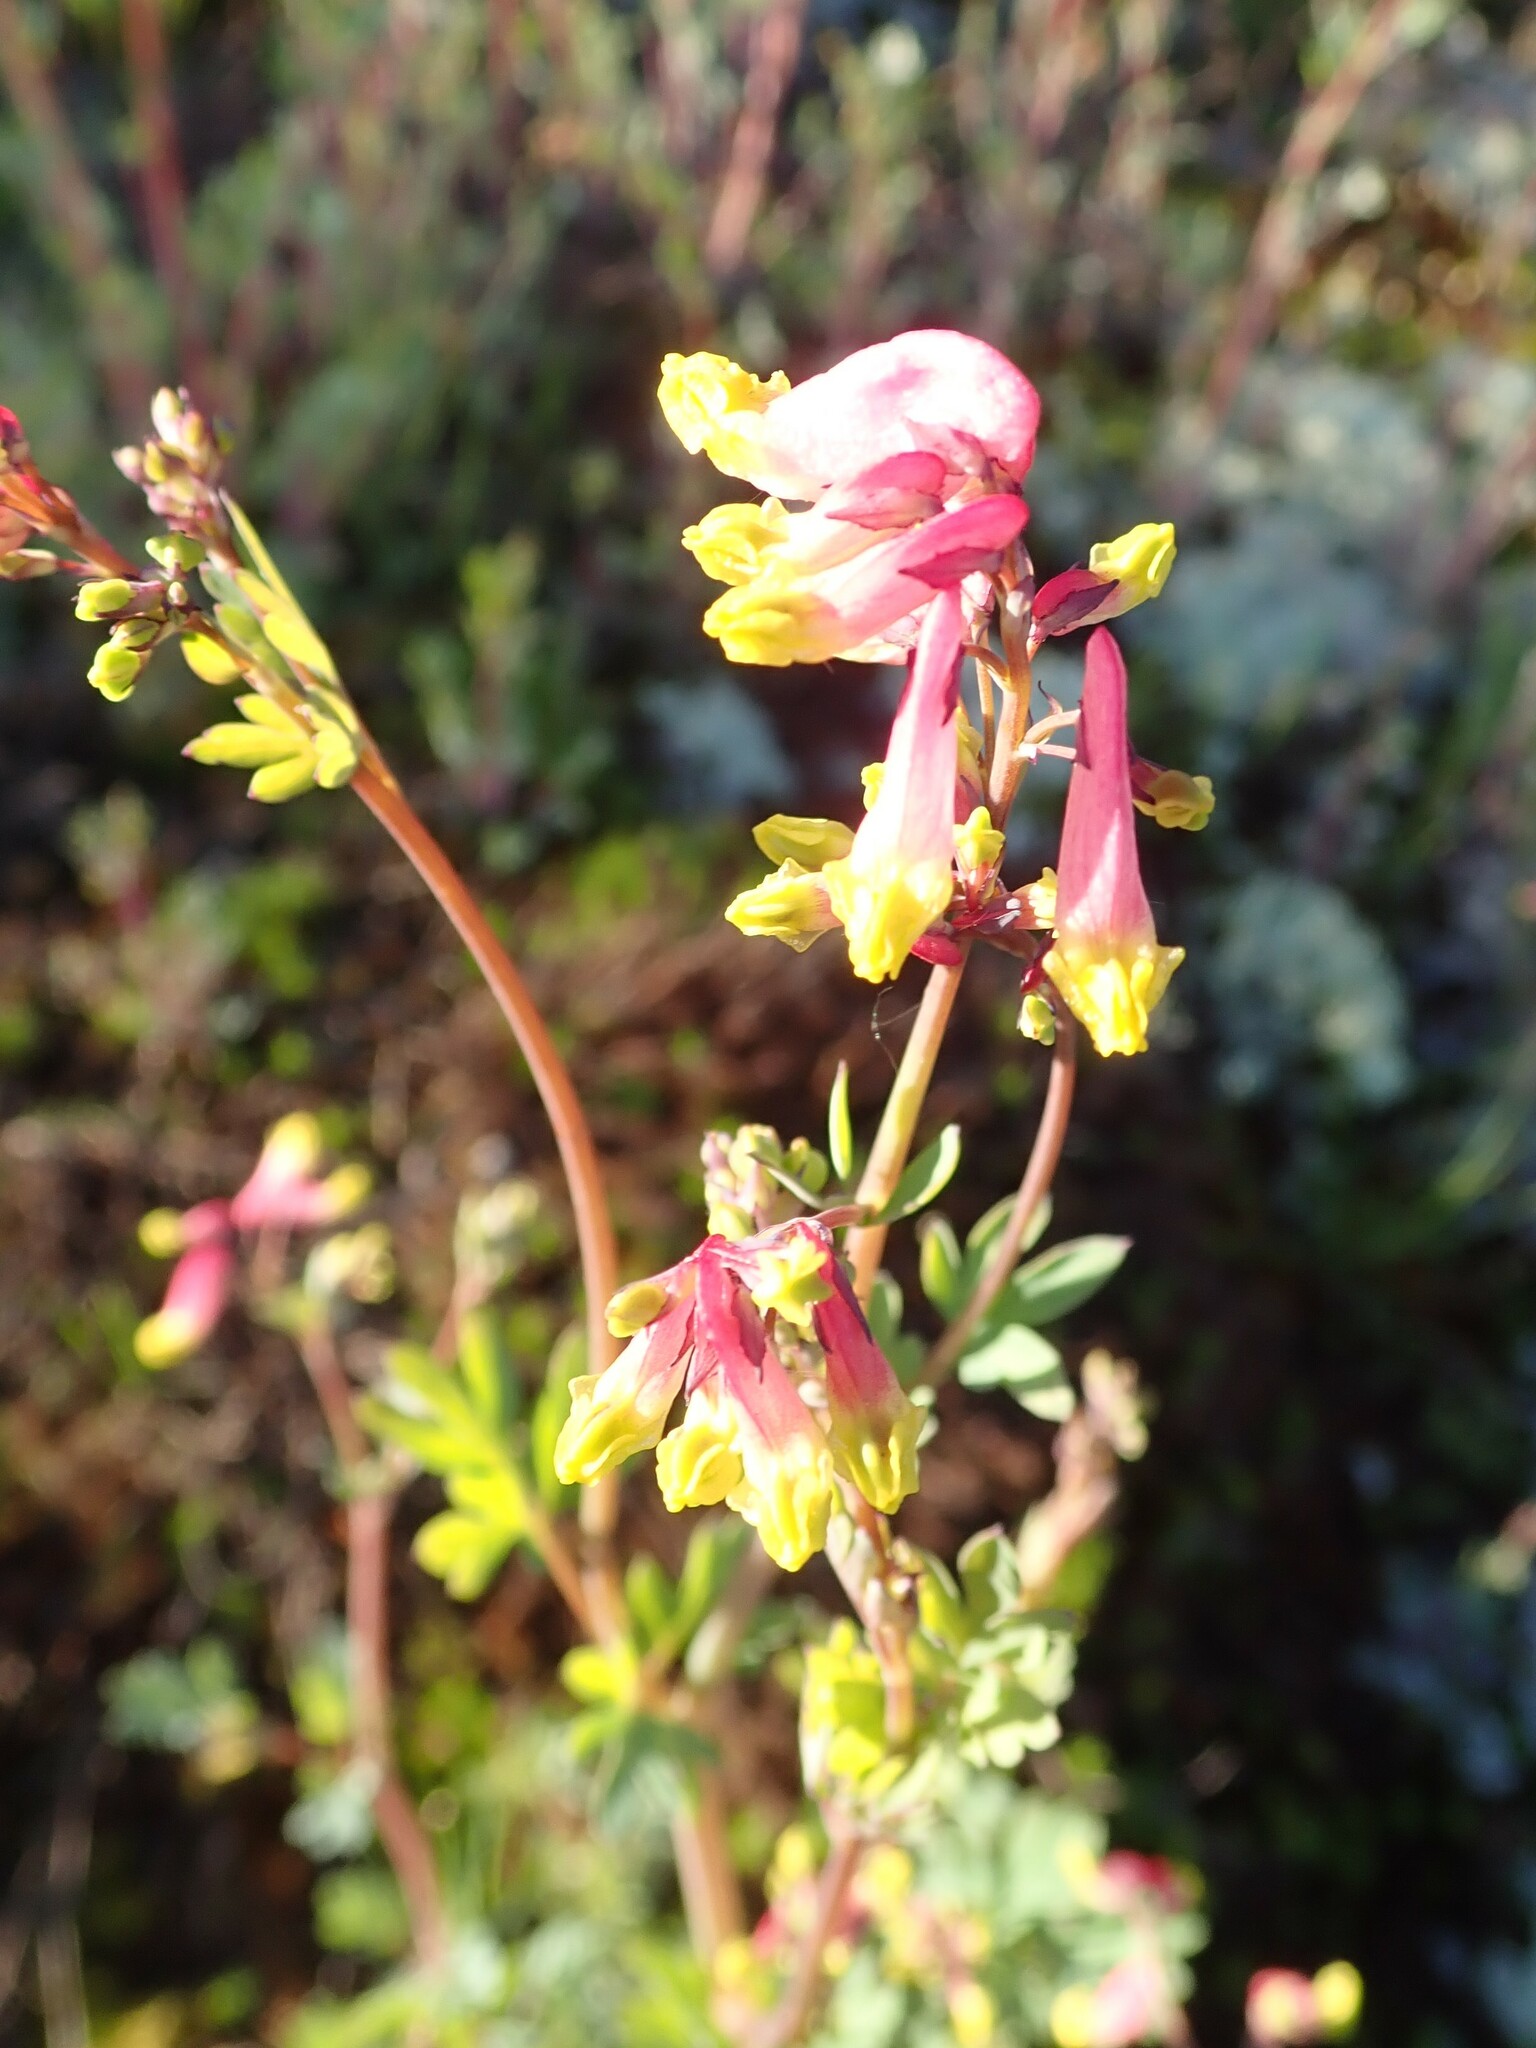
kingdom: Plantae
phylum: Tracheophyta
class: Magnoliopsida
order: Ranunculales
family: Papaveraceae
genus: Capnoides
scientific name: Capnoides sempervirens
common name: Rock harlequin
